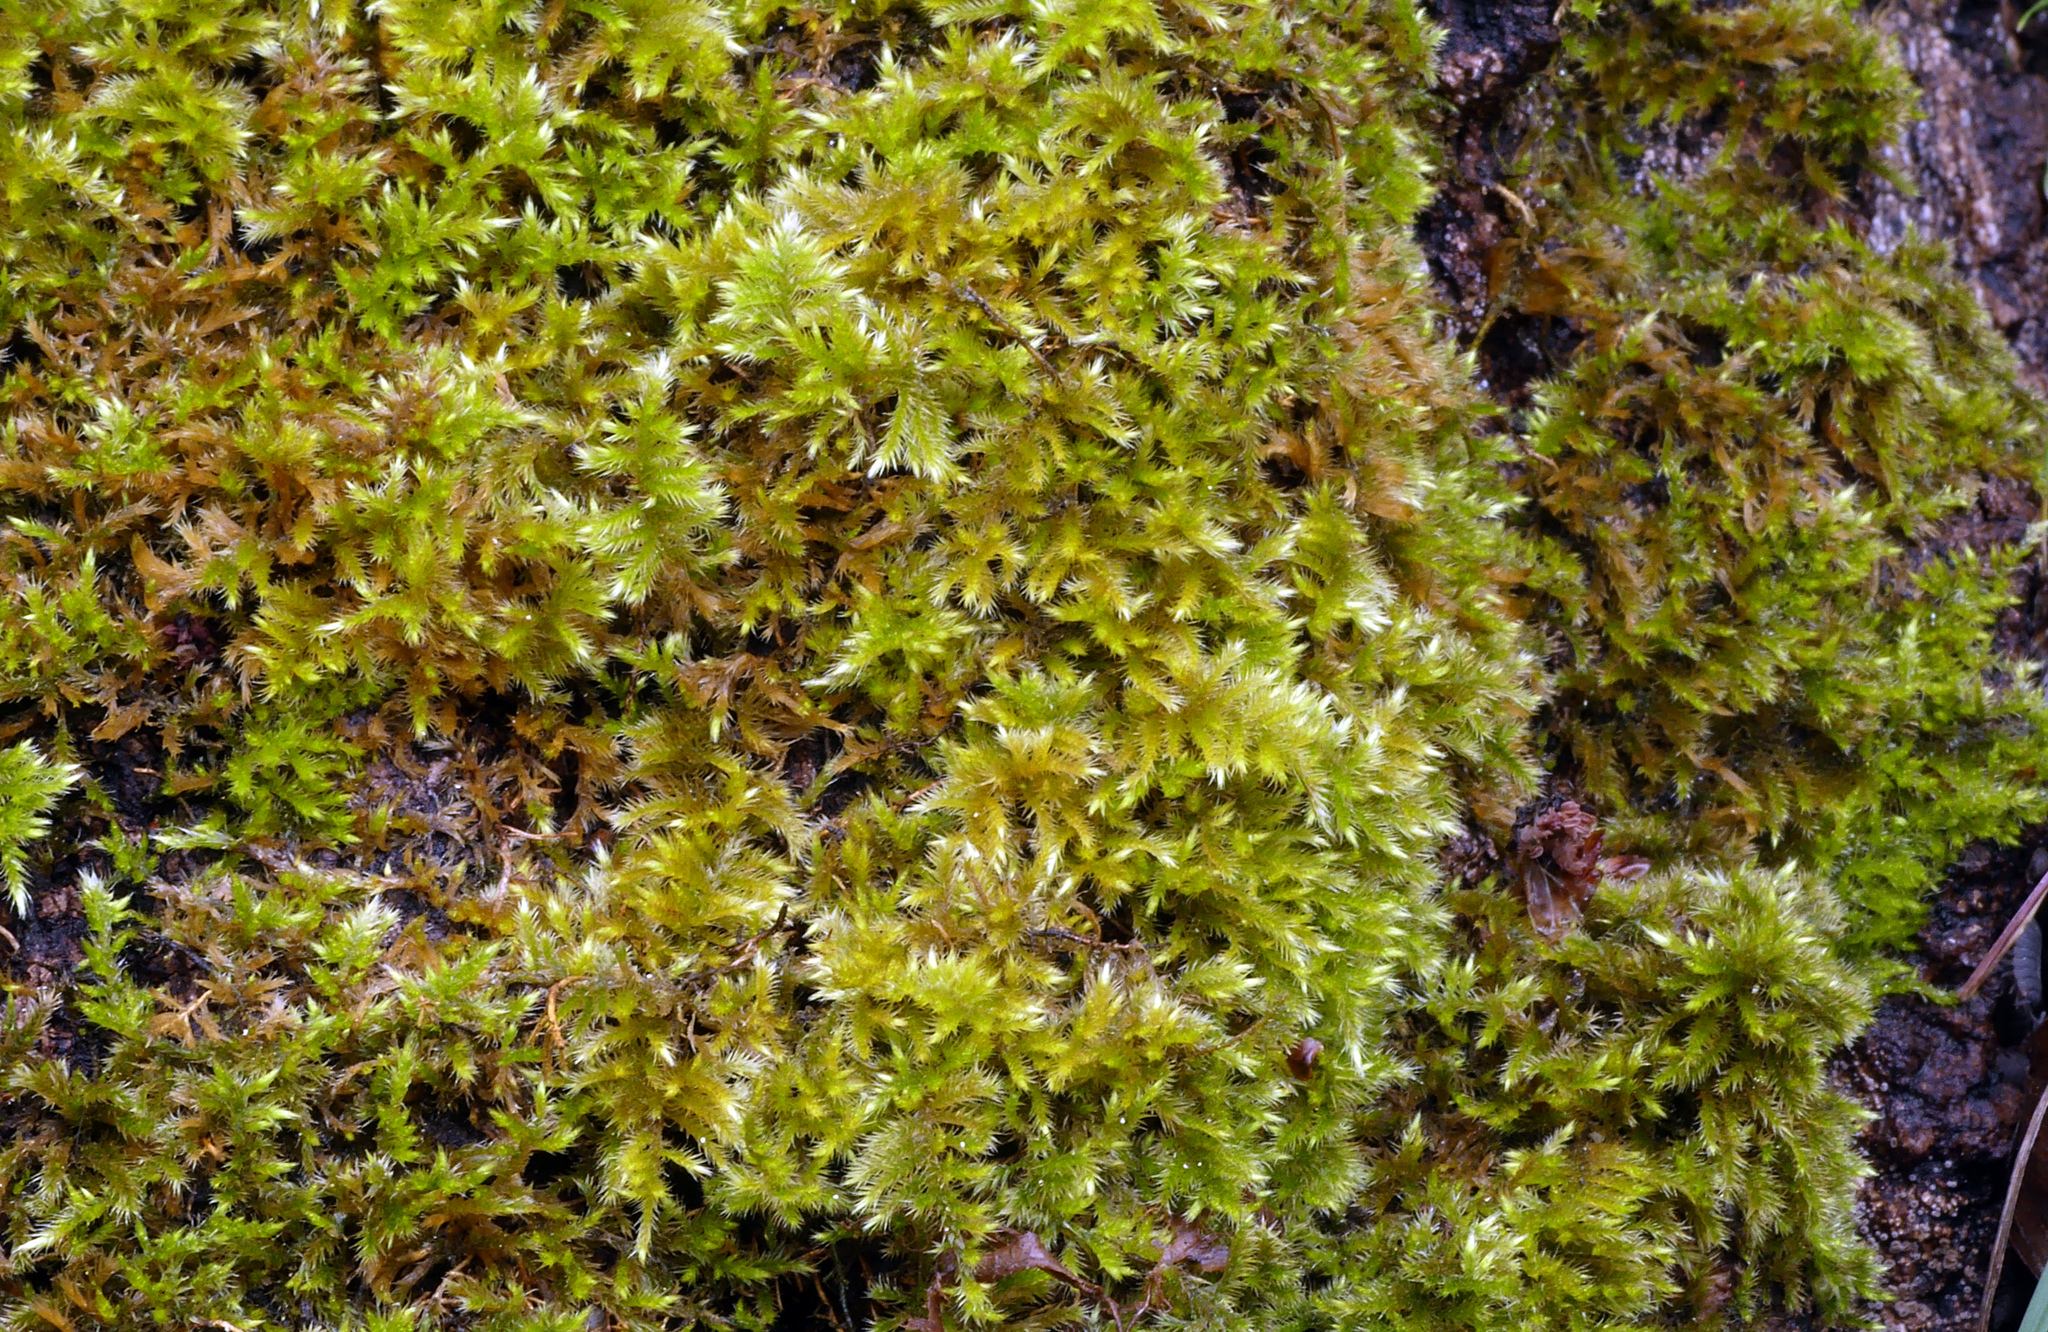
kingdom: Plantae
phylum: Bryophyta
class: Bryopsida
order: Hypnales
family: Brachytheciaceae
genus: Homalothecium
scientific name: Homalothecium sericeum
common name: Silky wall feather-moss
